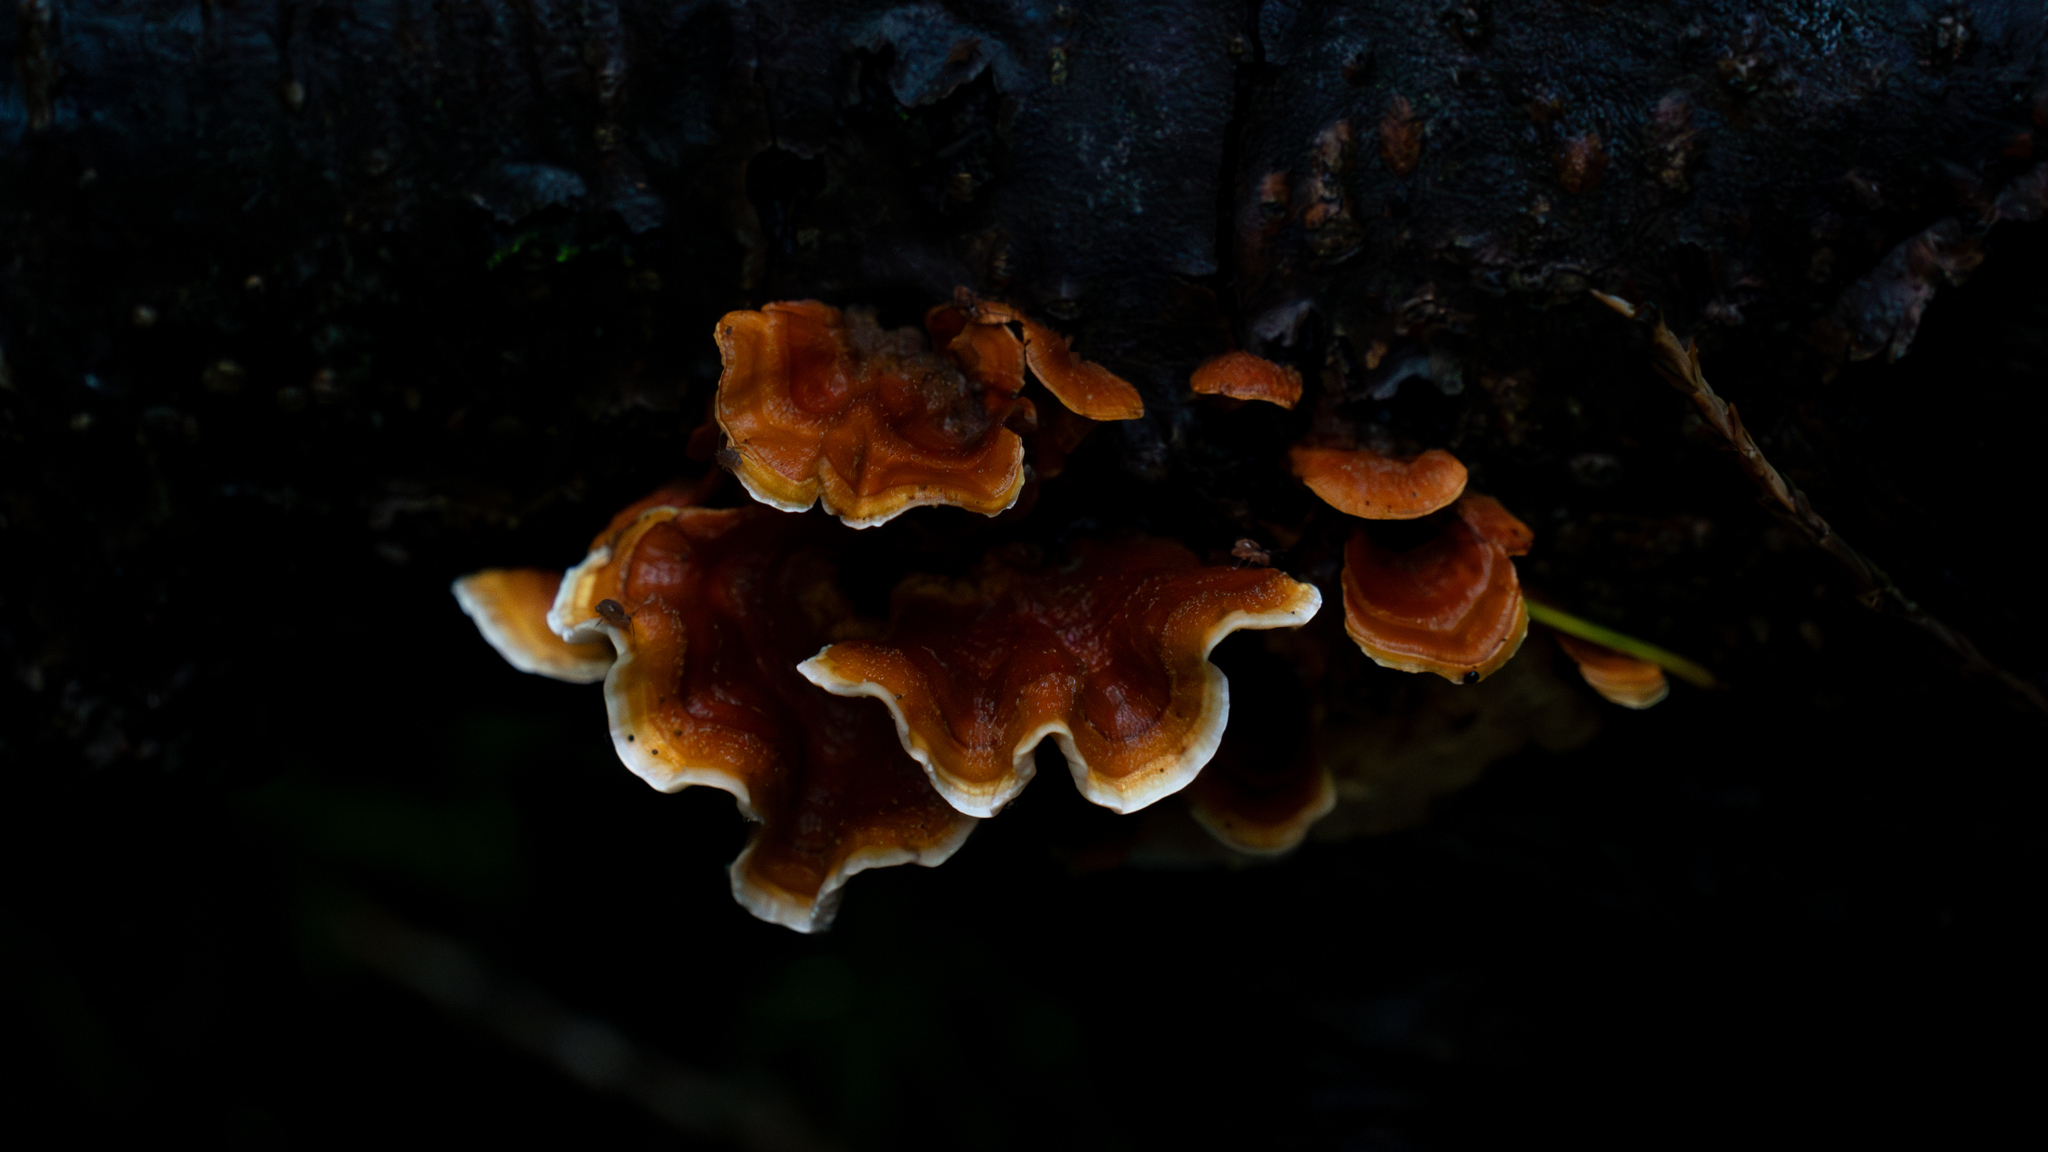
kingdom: Fungi
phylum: Basidiomycota
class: Agaricomycetes
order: Russulales
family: Stereaceae
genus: Stereum
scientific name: Stereum hirsutum
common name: Hairy curtain crust
